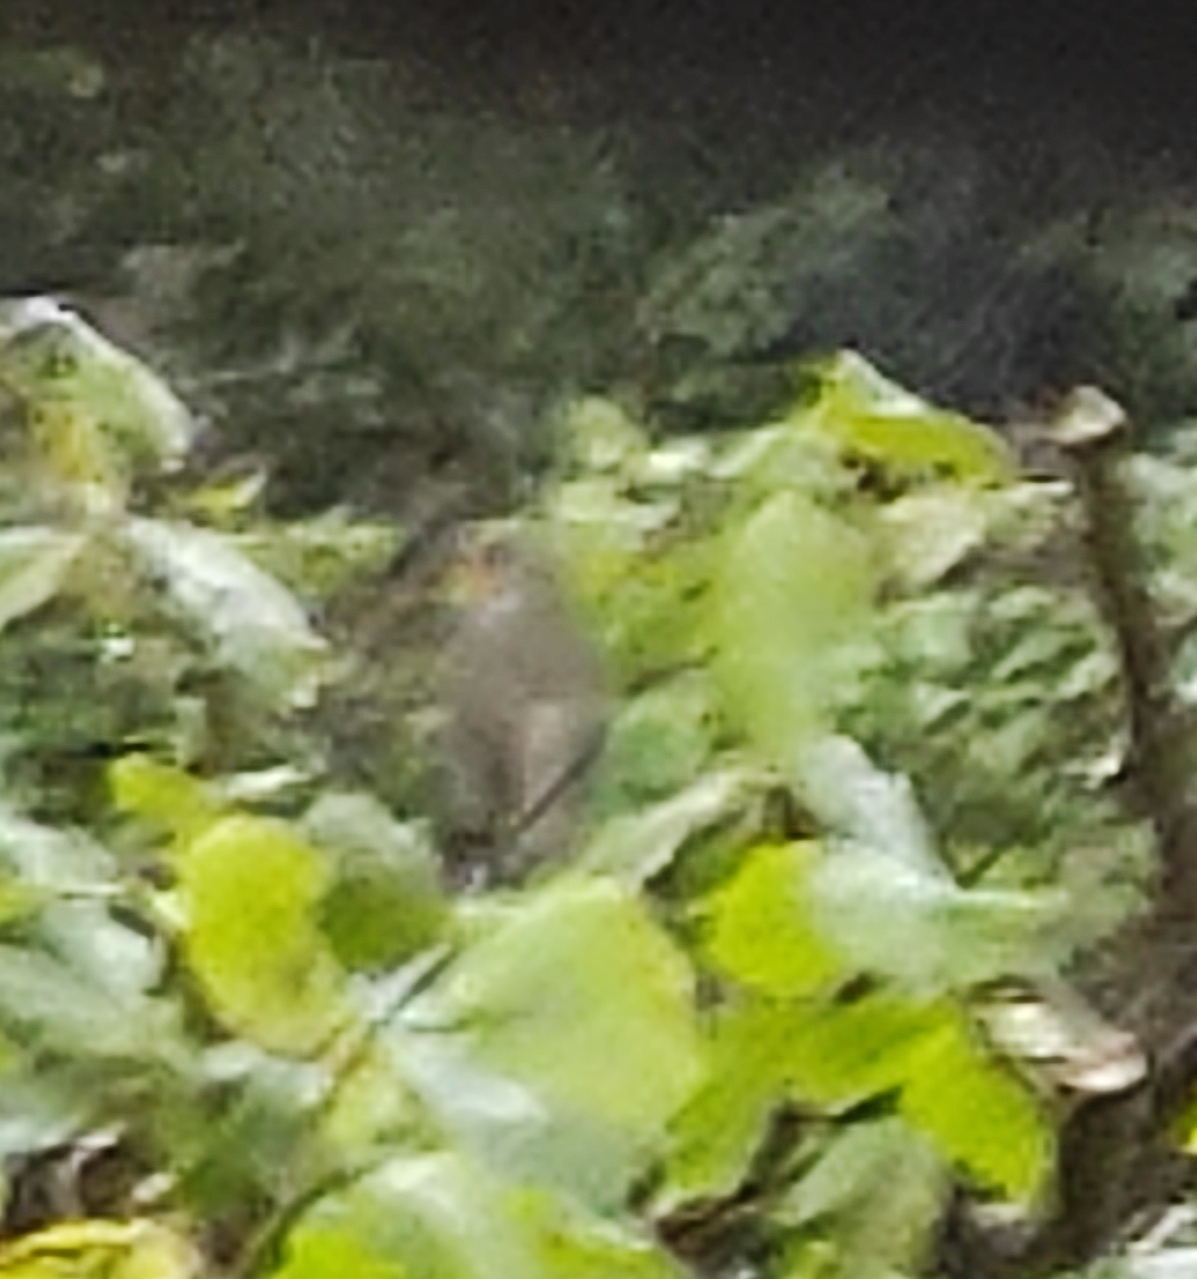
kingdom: Animalia
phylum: Chordata
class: Aves
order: Passeriformes
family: Muscicapidae
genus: Erithacus
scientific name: Erithacus rubecula
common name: European robin
